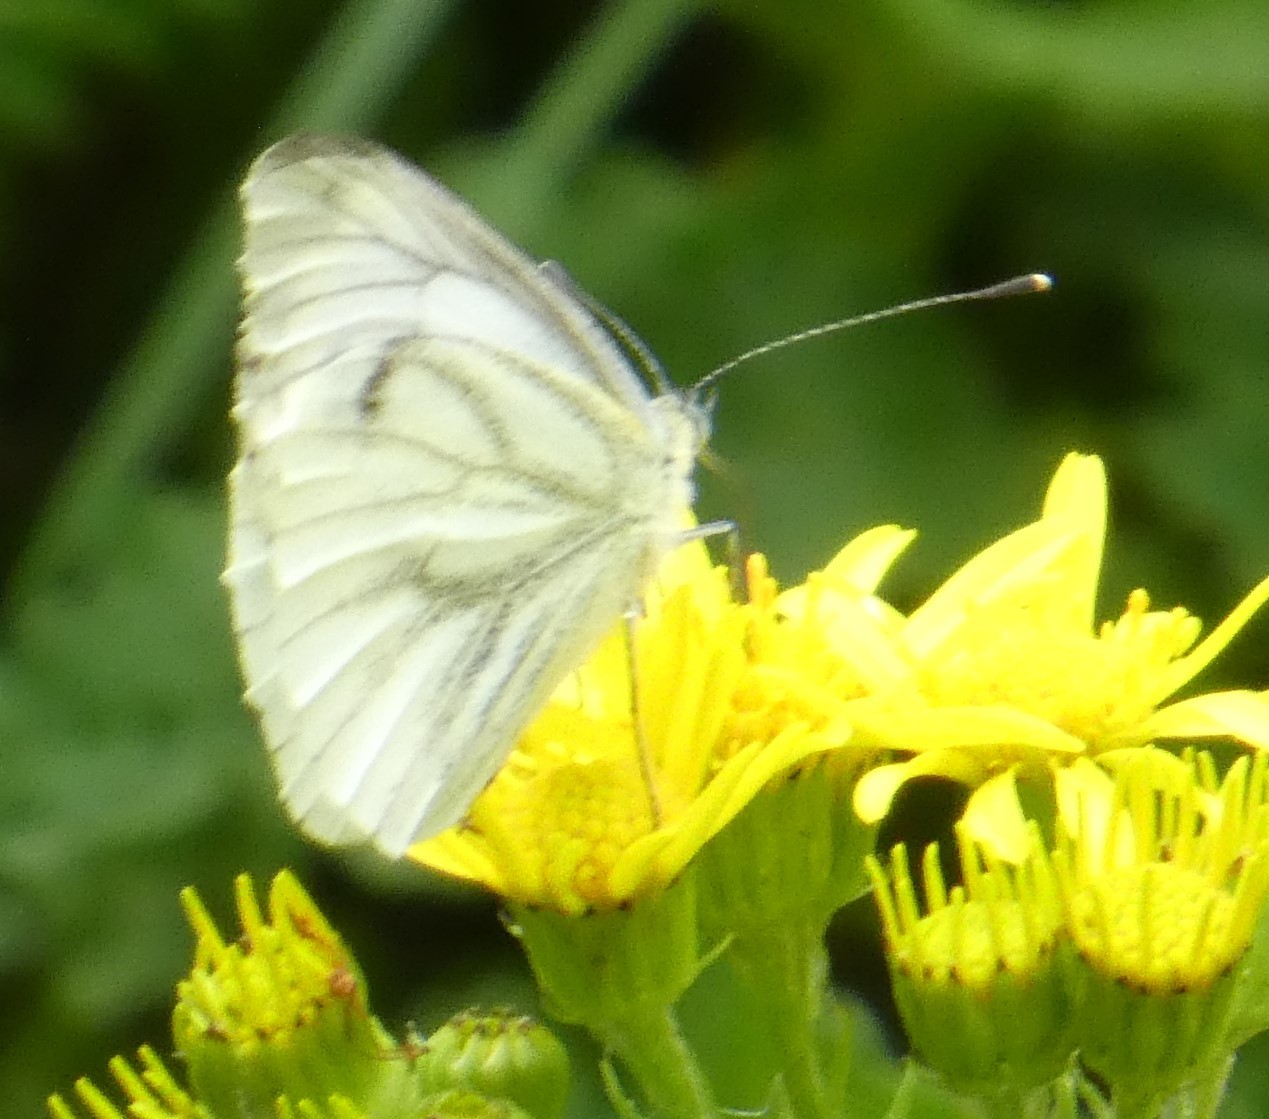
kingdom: Animalia
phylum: Arthropoda
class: Insecta
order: Lepidoptera
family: Pieridae
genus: Pieris
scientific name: Pieris napi
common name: Green-veined white
